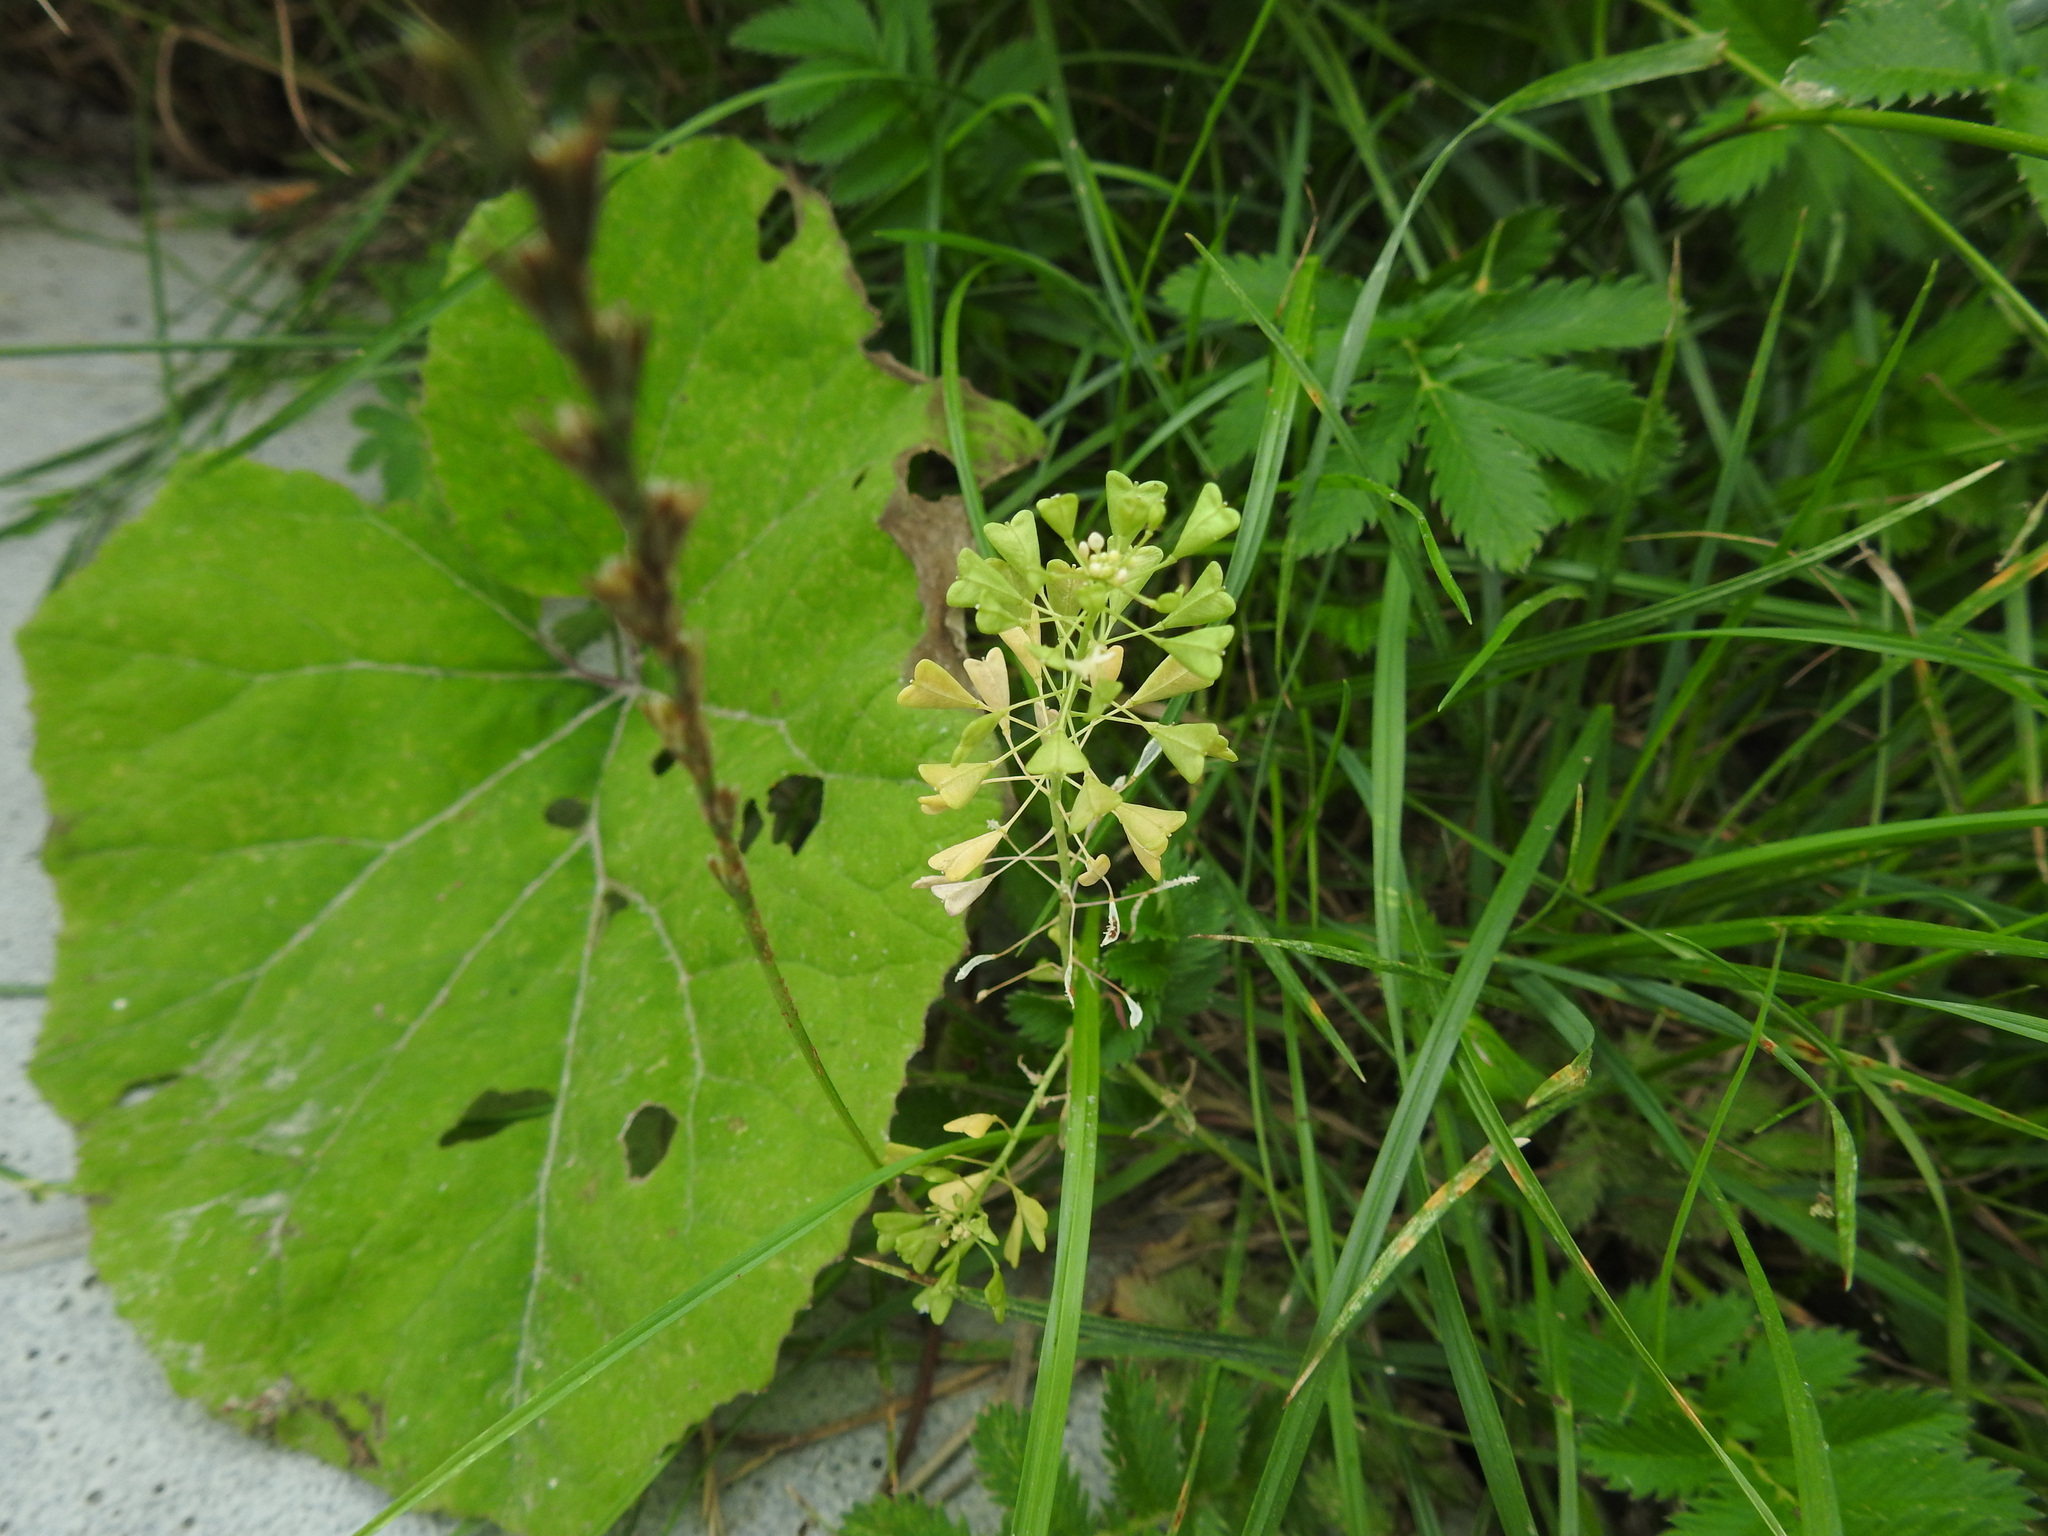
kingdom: Plantae
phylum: Tracheophyta
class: Magnoliopsida
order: Brassicales
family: Brassicaceae
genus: Capsella
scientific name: Capsella bursa-pastoris
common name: Shepherd's purse
